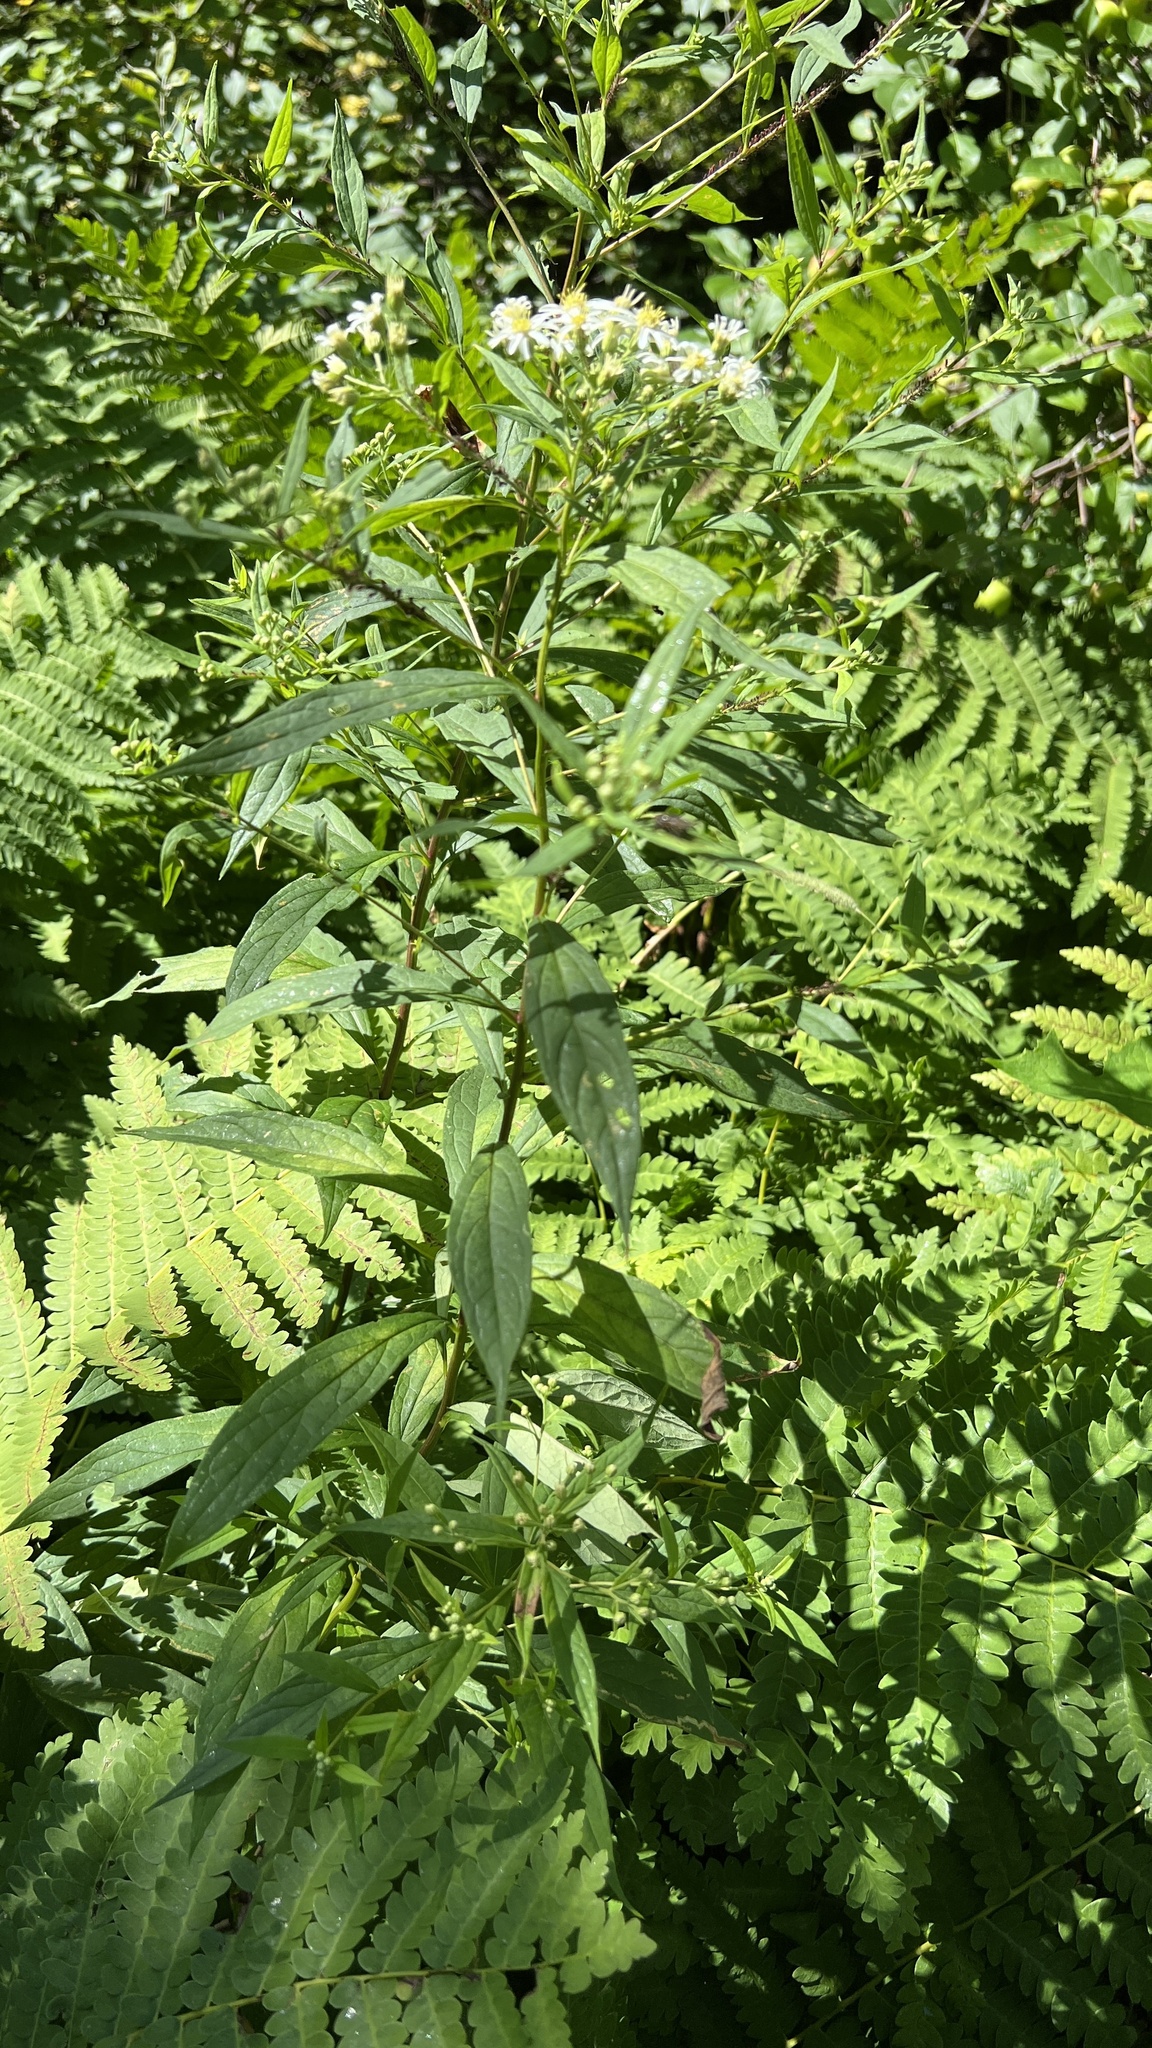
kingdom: Plantae
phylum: Tracheophyta
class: Magnoliopsida
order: Asterales
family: Asteraceae
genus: Doellingeria
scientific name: Doellingeria umbellata
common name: Flat-top white aster
